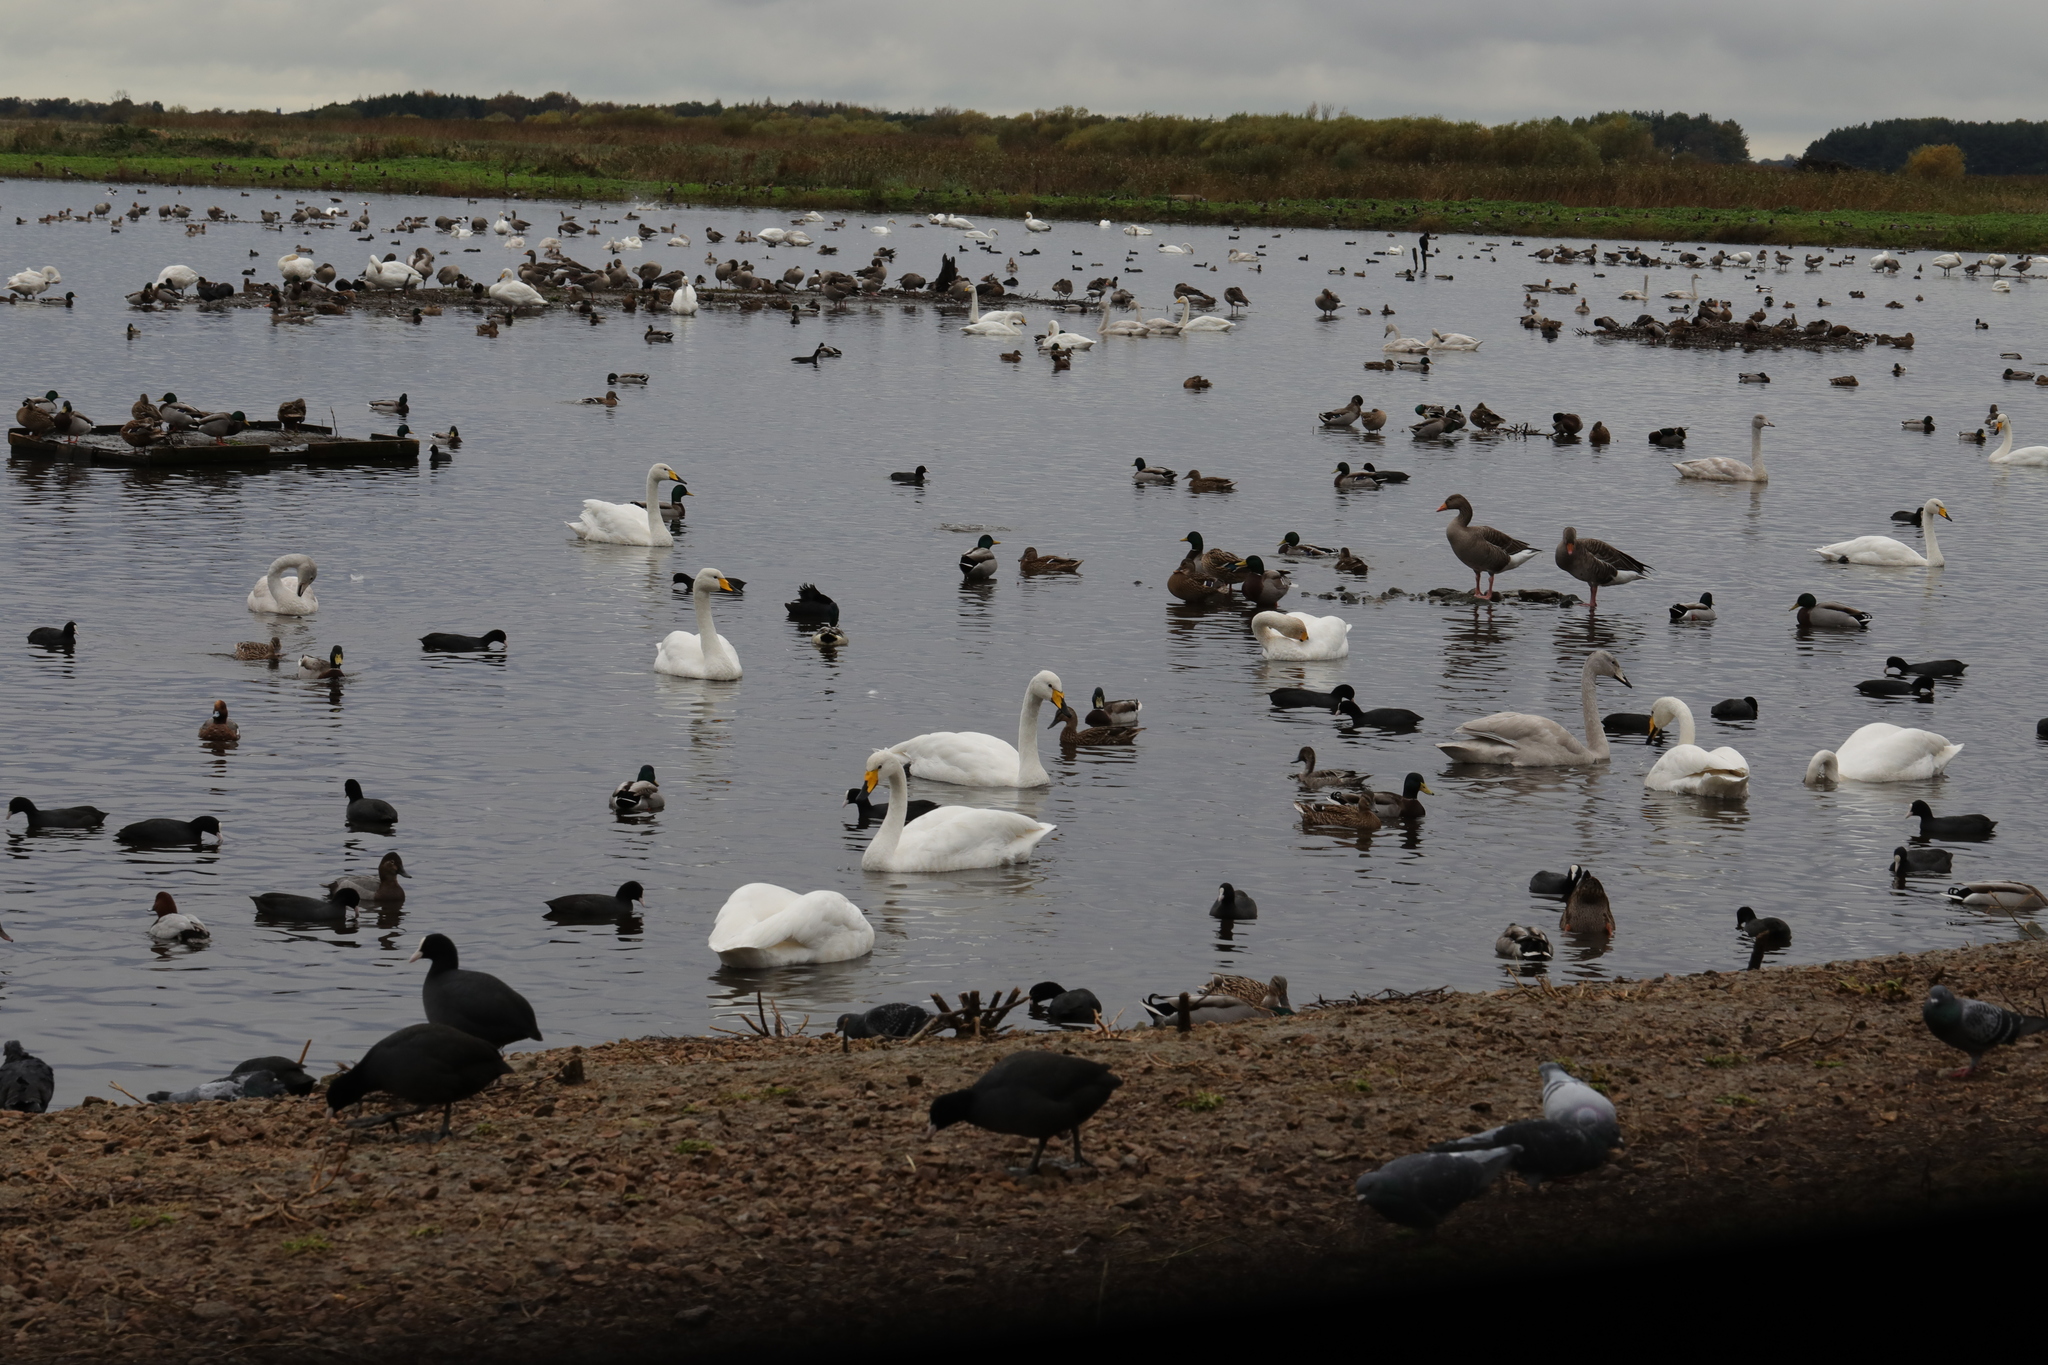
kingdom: Animalia
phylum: Chordata
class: Aves
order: Anseriformes
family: Anatidae
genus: Cygnus
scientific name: Cygnus cygnus
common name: Whooper swan
